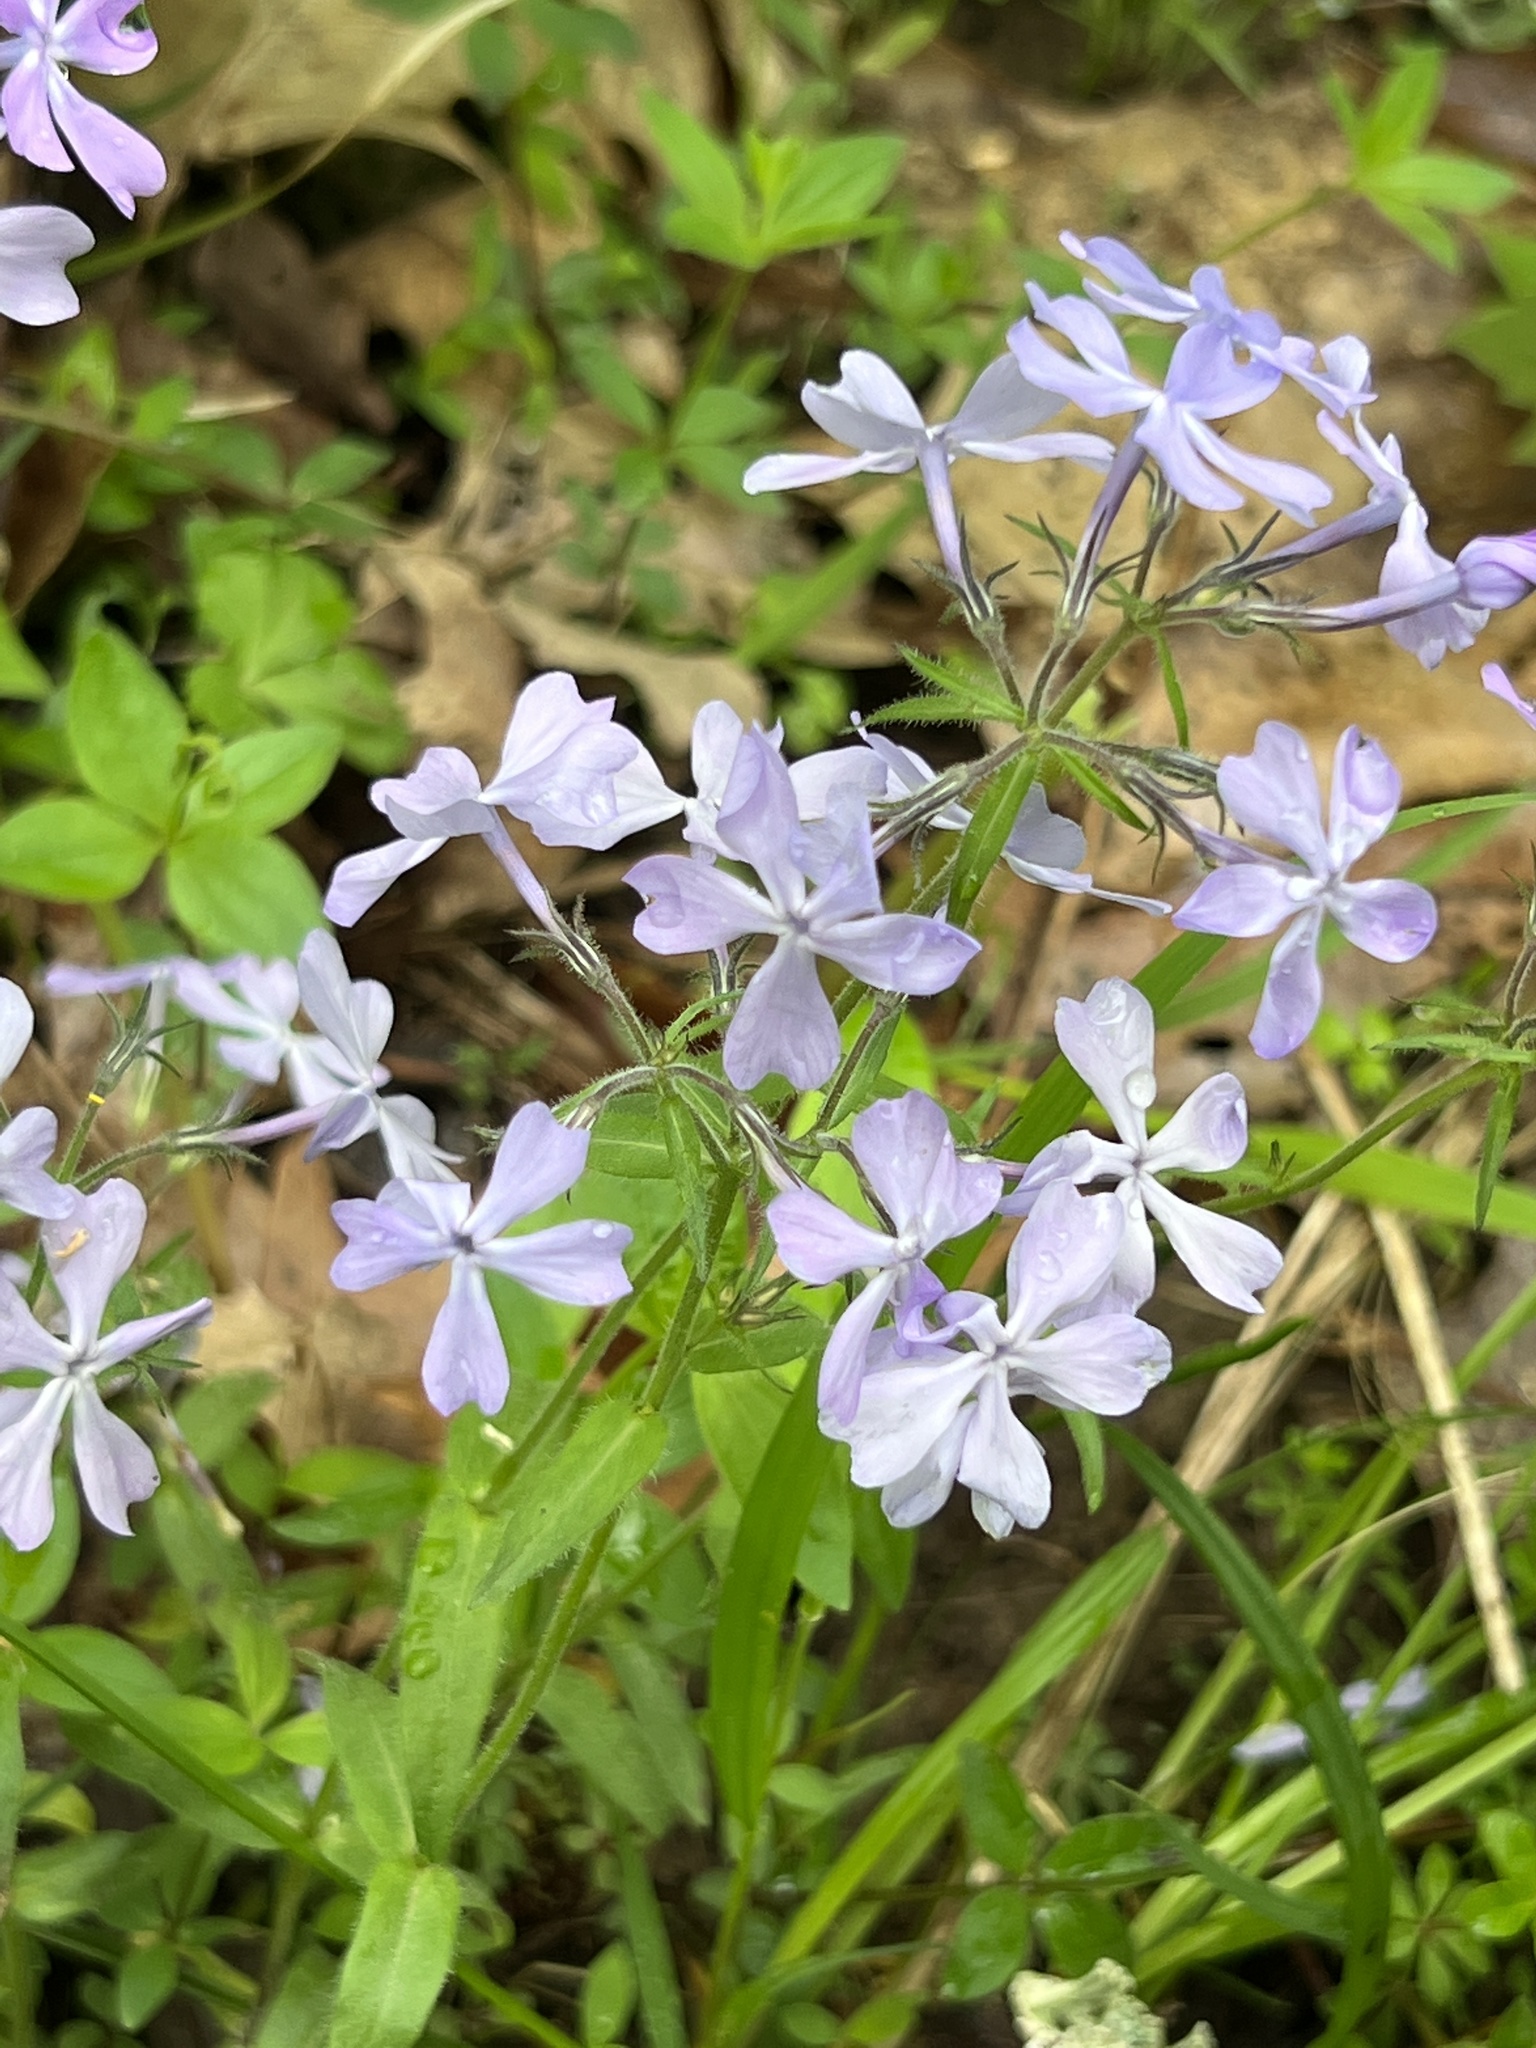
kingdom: Plantae
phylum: Tracheophyta
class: Magnoliopsida
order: Ericales
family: Polemoniaceae
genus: Phlox
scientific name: Phlox divaricata
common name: Blue phlox
